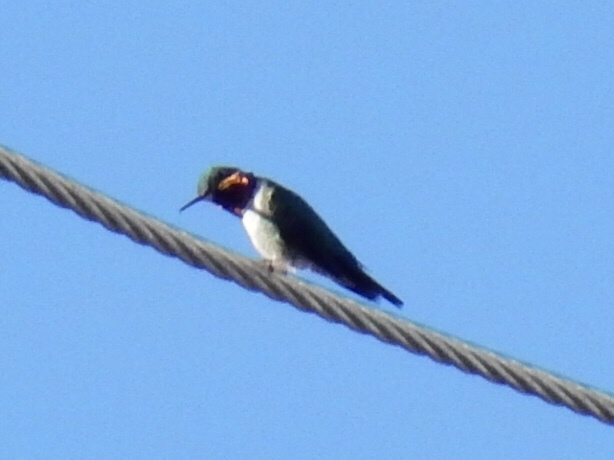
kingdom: Animalia
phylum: Chordata
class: Aves
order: Apodiformes
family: Trochilidae
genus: Selasphorus
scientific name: Selasphorus platycercus
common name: Broad-tailed hummingbird
